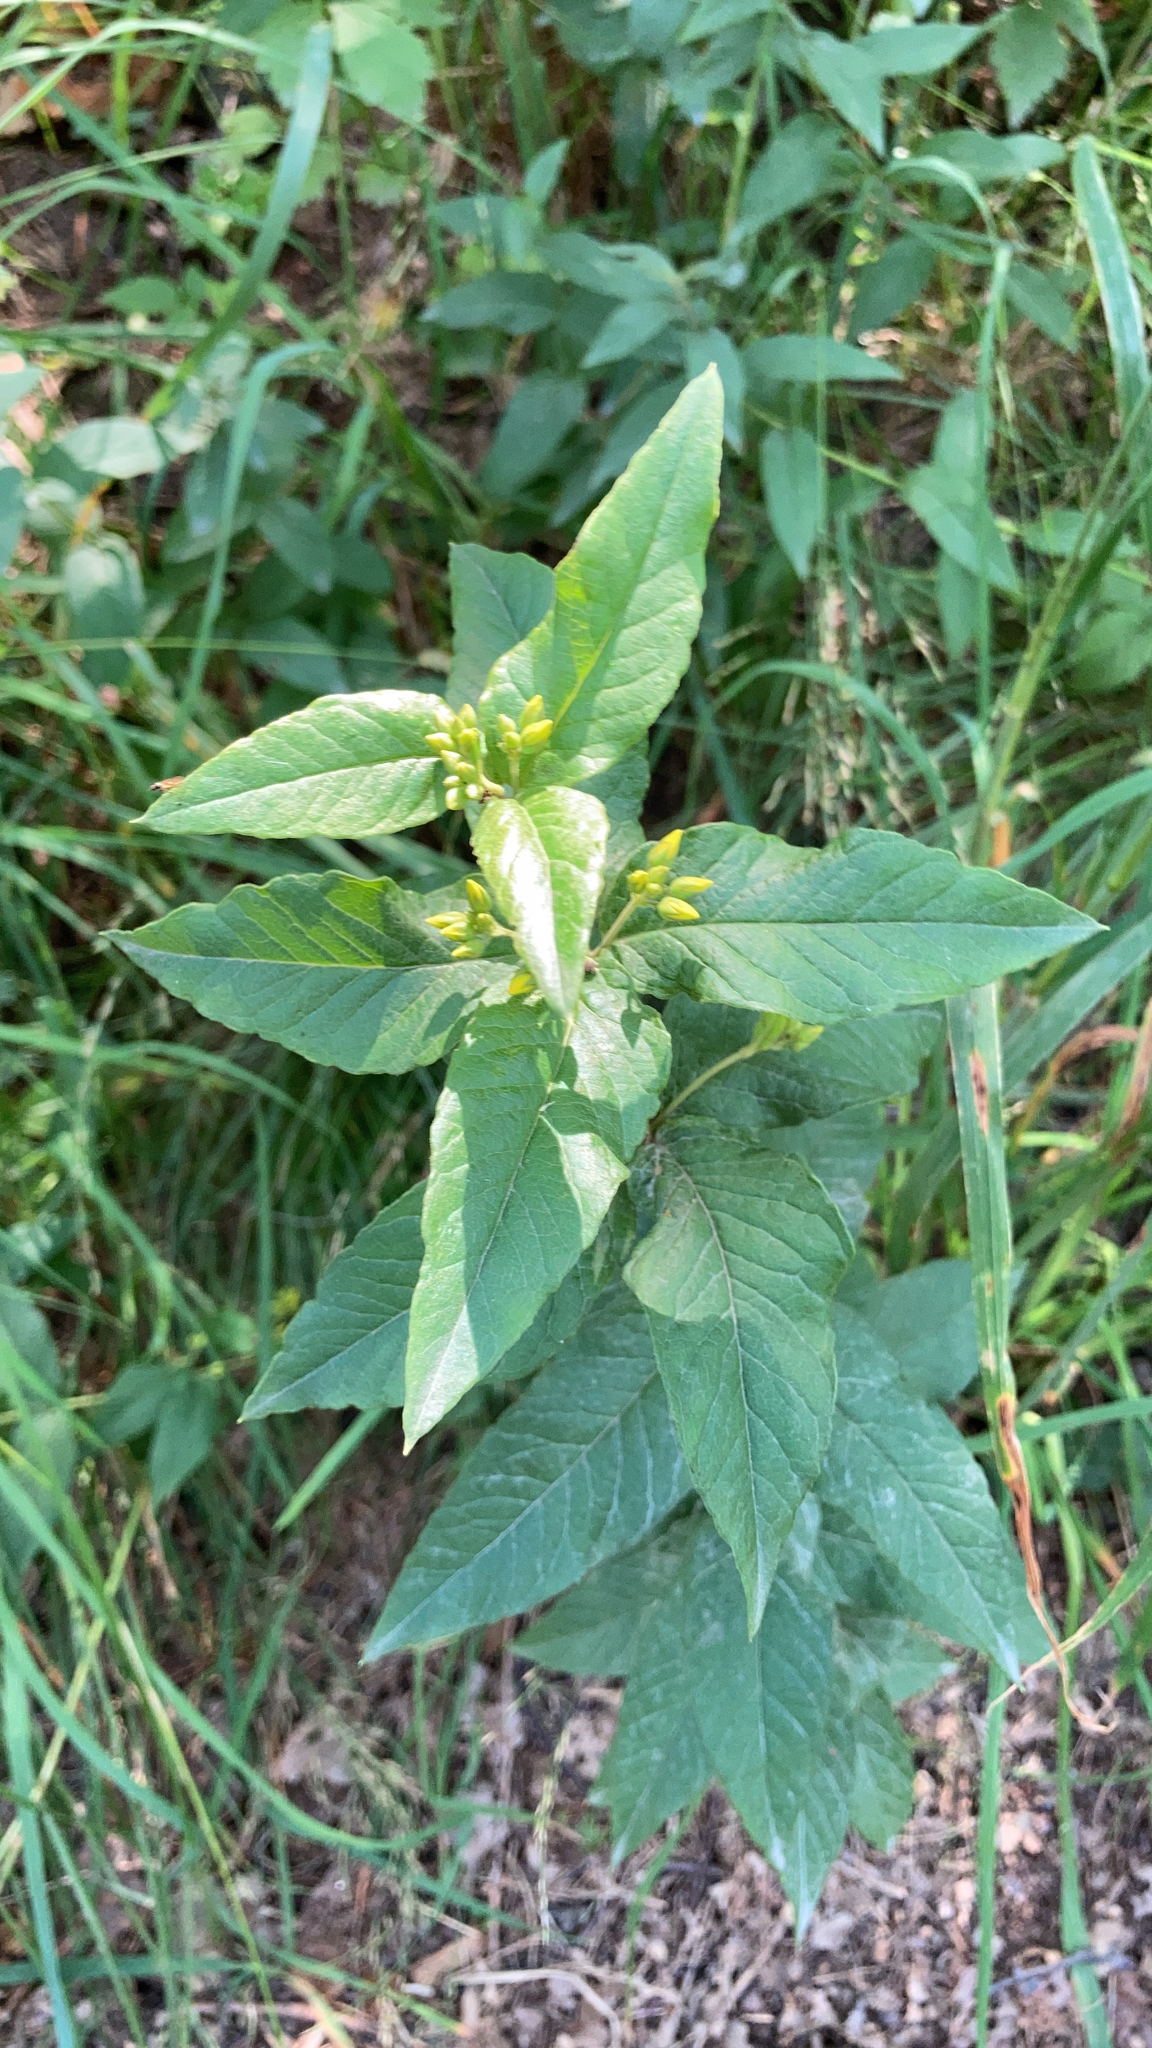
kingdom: Plantae
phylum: Tracheophyta
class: Magnoliopsida
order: Ericales
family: Primulaceae
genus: Lysimachia
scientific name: Lysimachia vulgaris
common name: Yellow loosestrife
